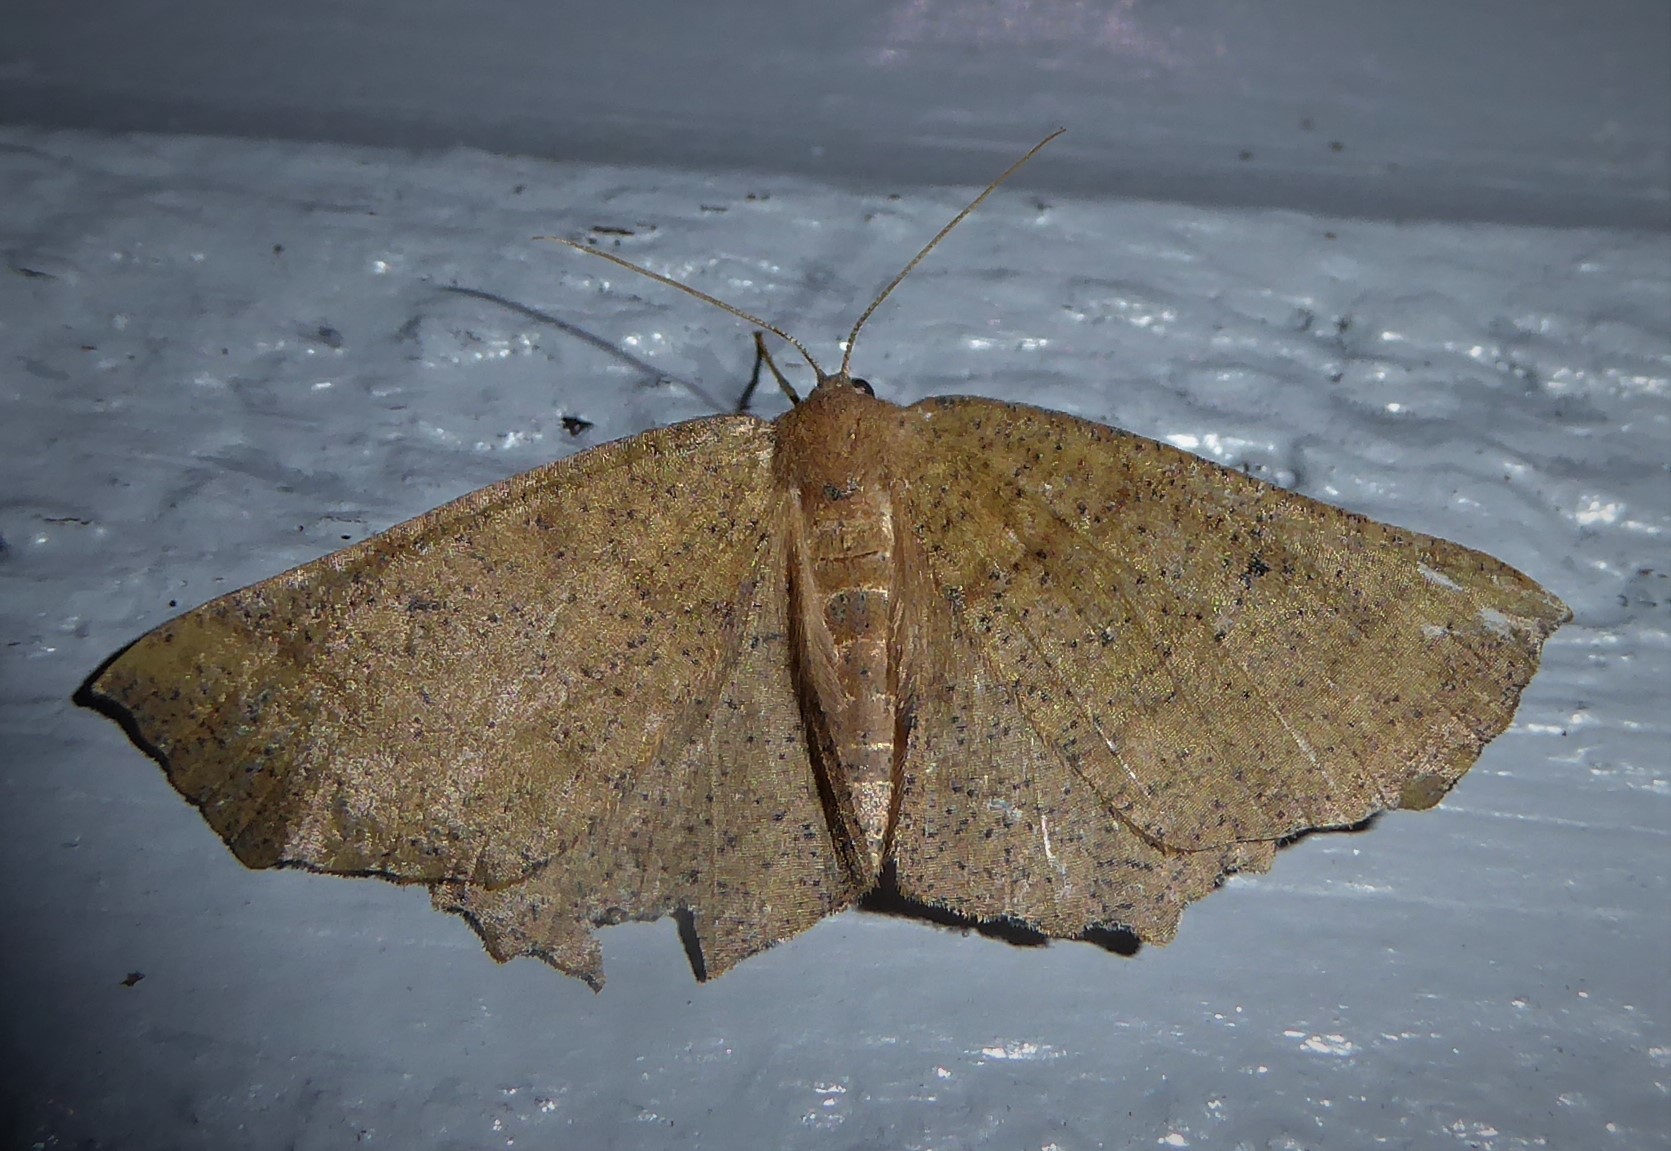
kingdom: Animalia
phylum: Arthropoda
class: Insecta
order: Lepidoptera
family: Geometridae
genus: Xyridacma
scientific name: Xyridacma ustaria
